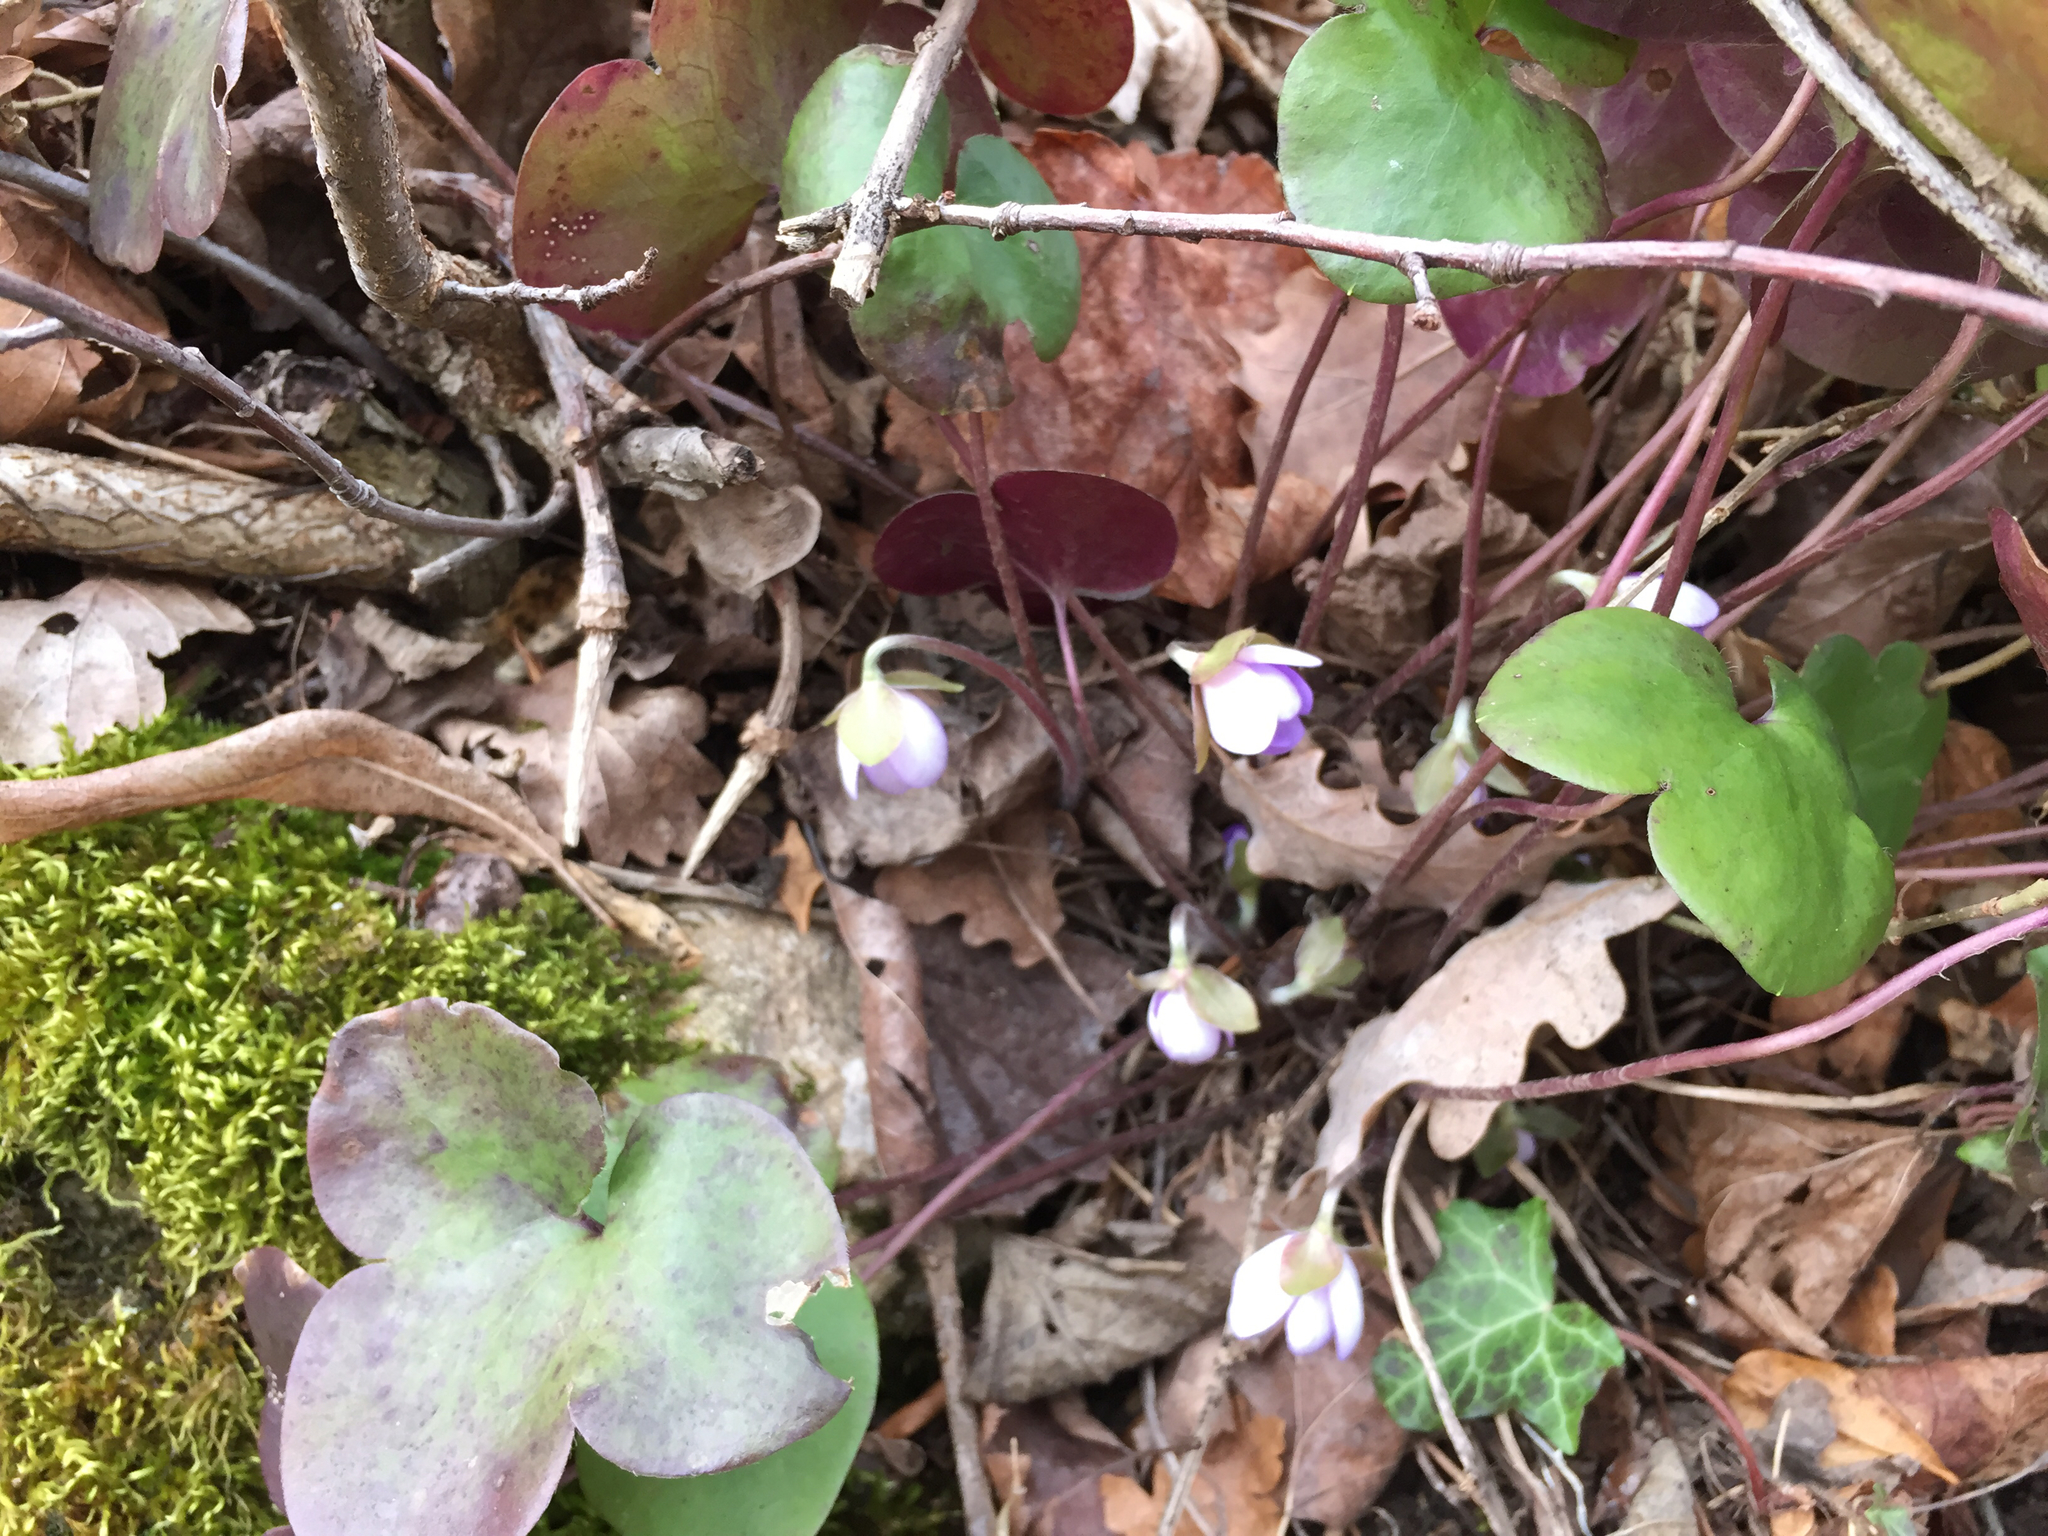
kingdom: Plantae
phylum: Tracheophyta
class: Magnoliopsida
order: Ranunculales
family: Ranunculaceae
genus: Hepatica
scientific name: Hepatica nobilis
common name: Liverleaf
